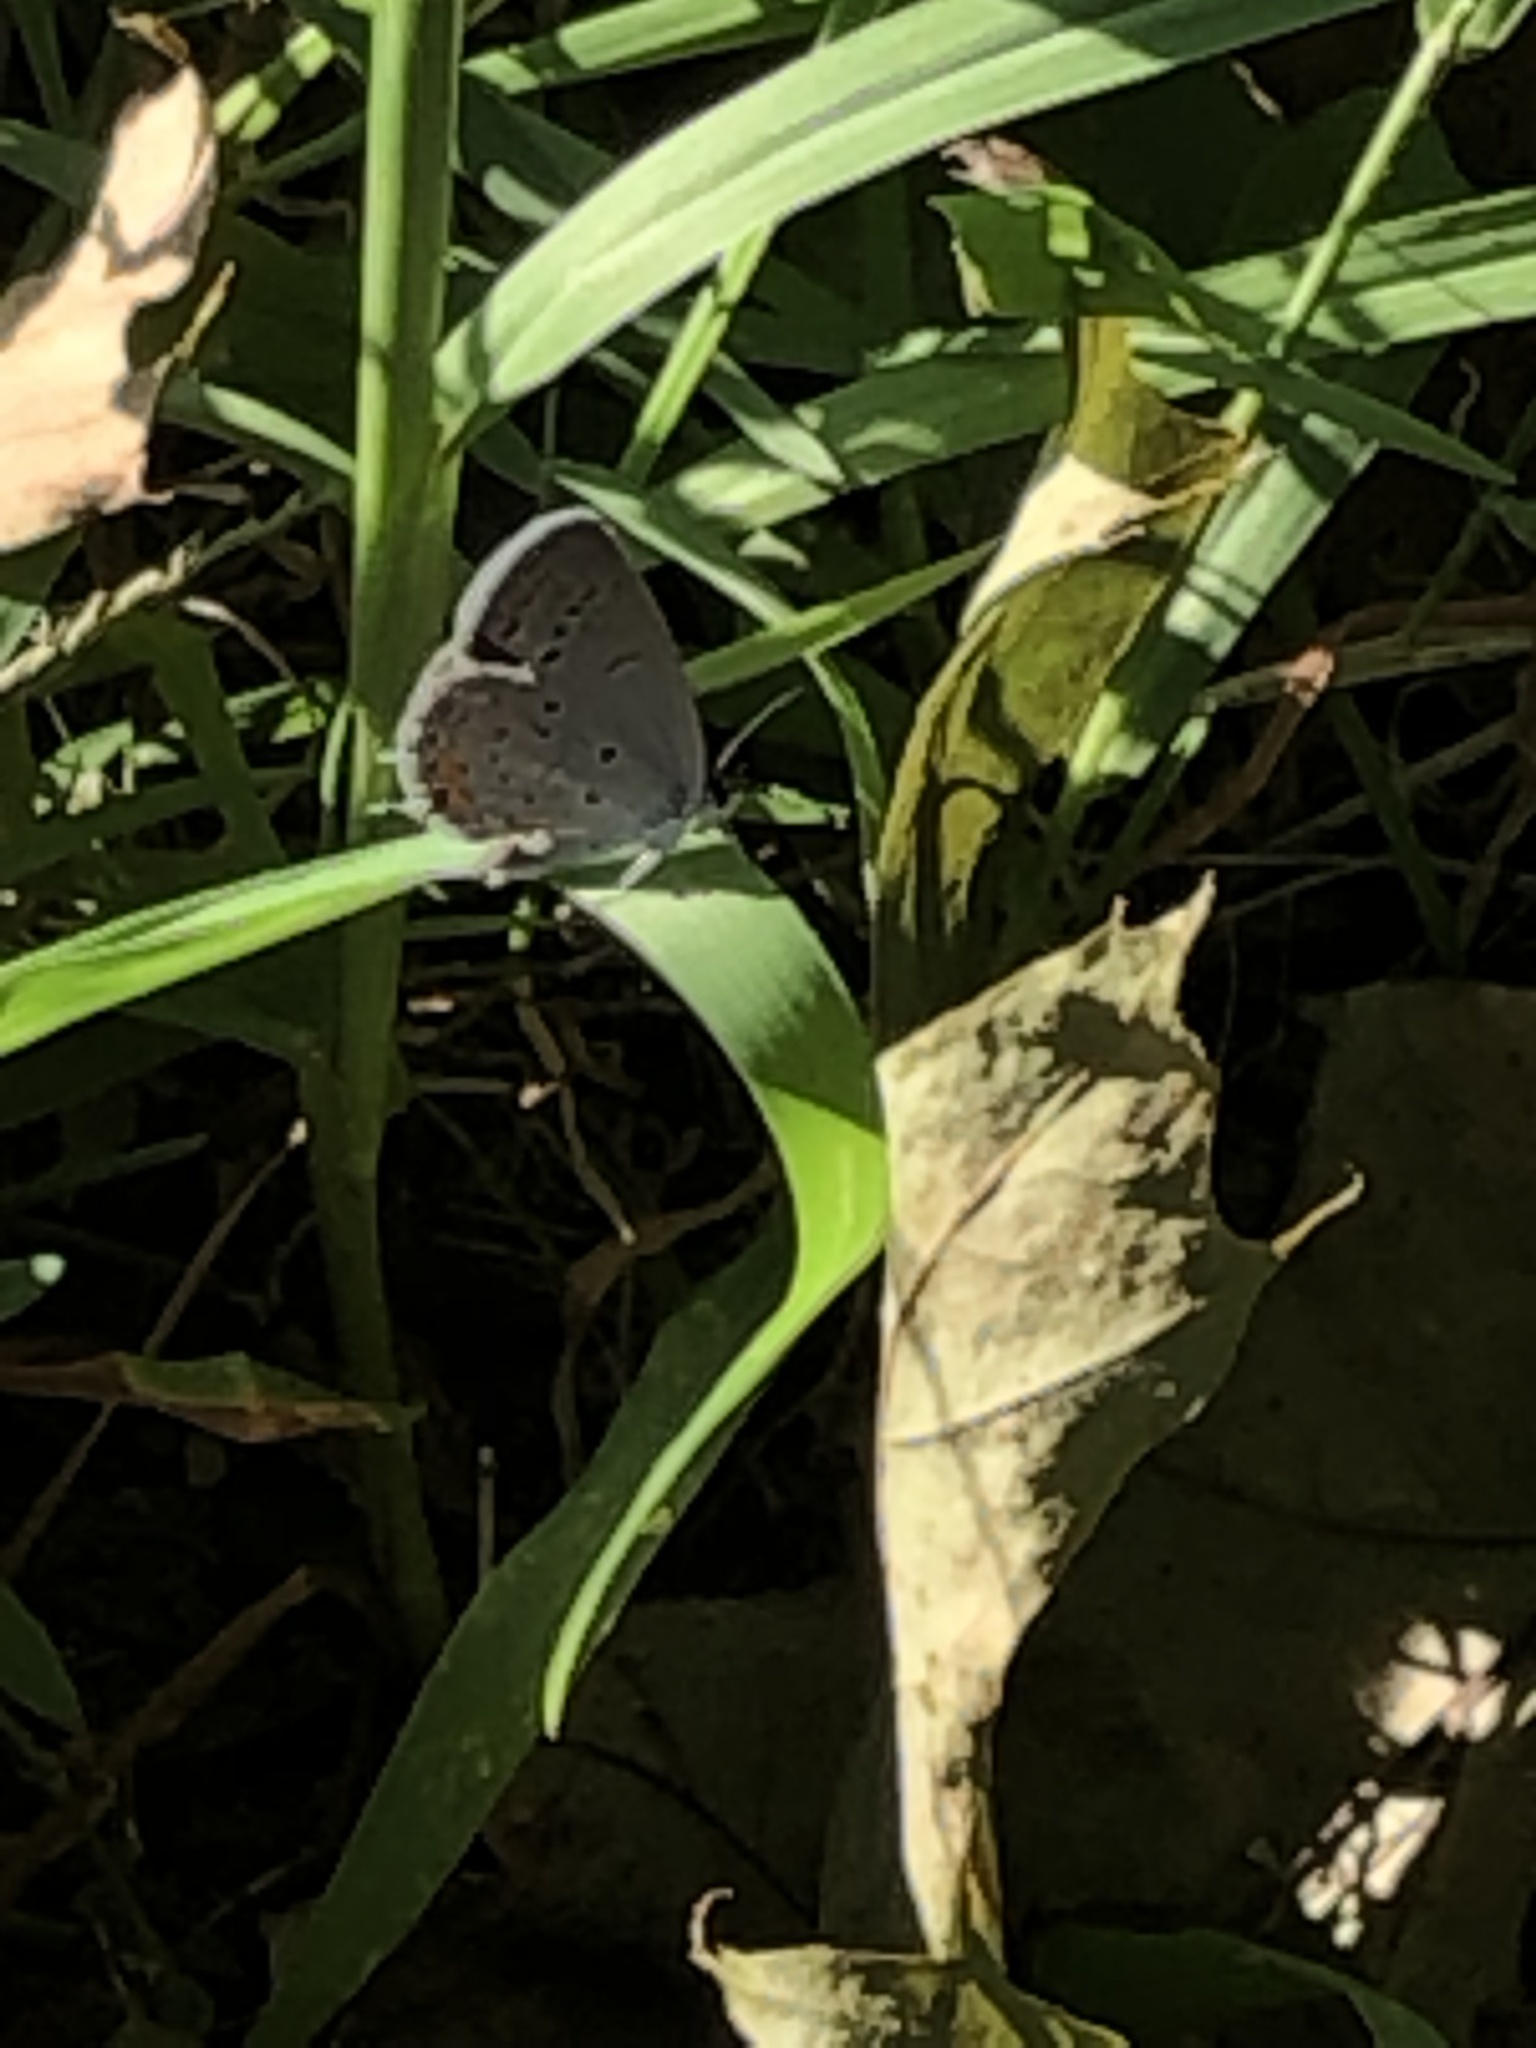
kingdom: Animalia
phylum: Arthropoda
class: Insecta
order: Lepidoptera
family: Lycaenidae
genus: Elkalyce
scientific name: Elkalyce comyntas
